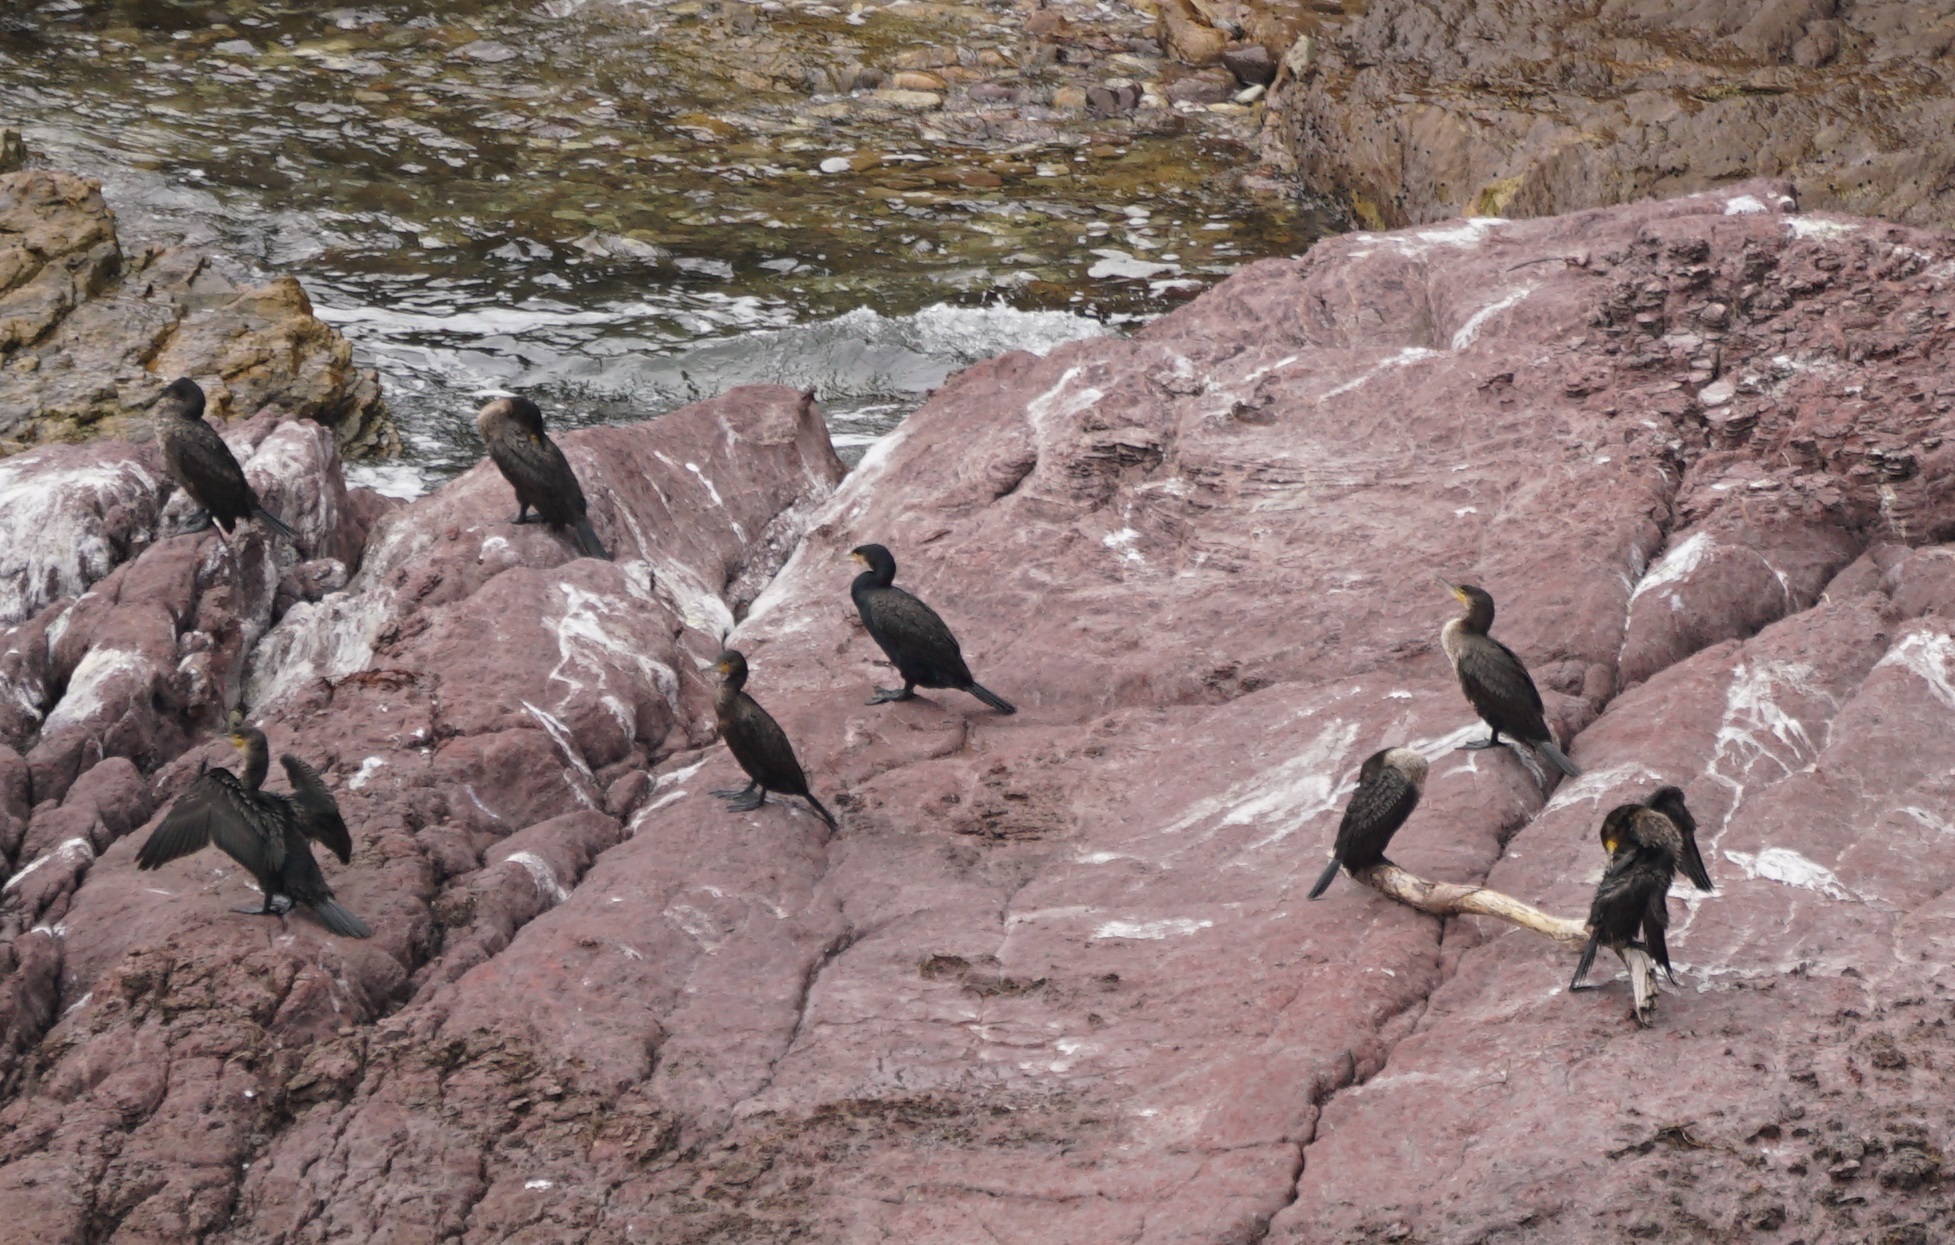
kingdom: Animalia
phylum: Chordata
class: Aves
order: Suliformes
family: Phalacrocoracidae
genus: Phalacrocorax
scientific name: Phalacrocorax carbo
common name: Great cormorant
